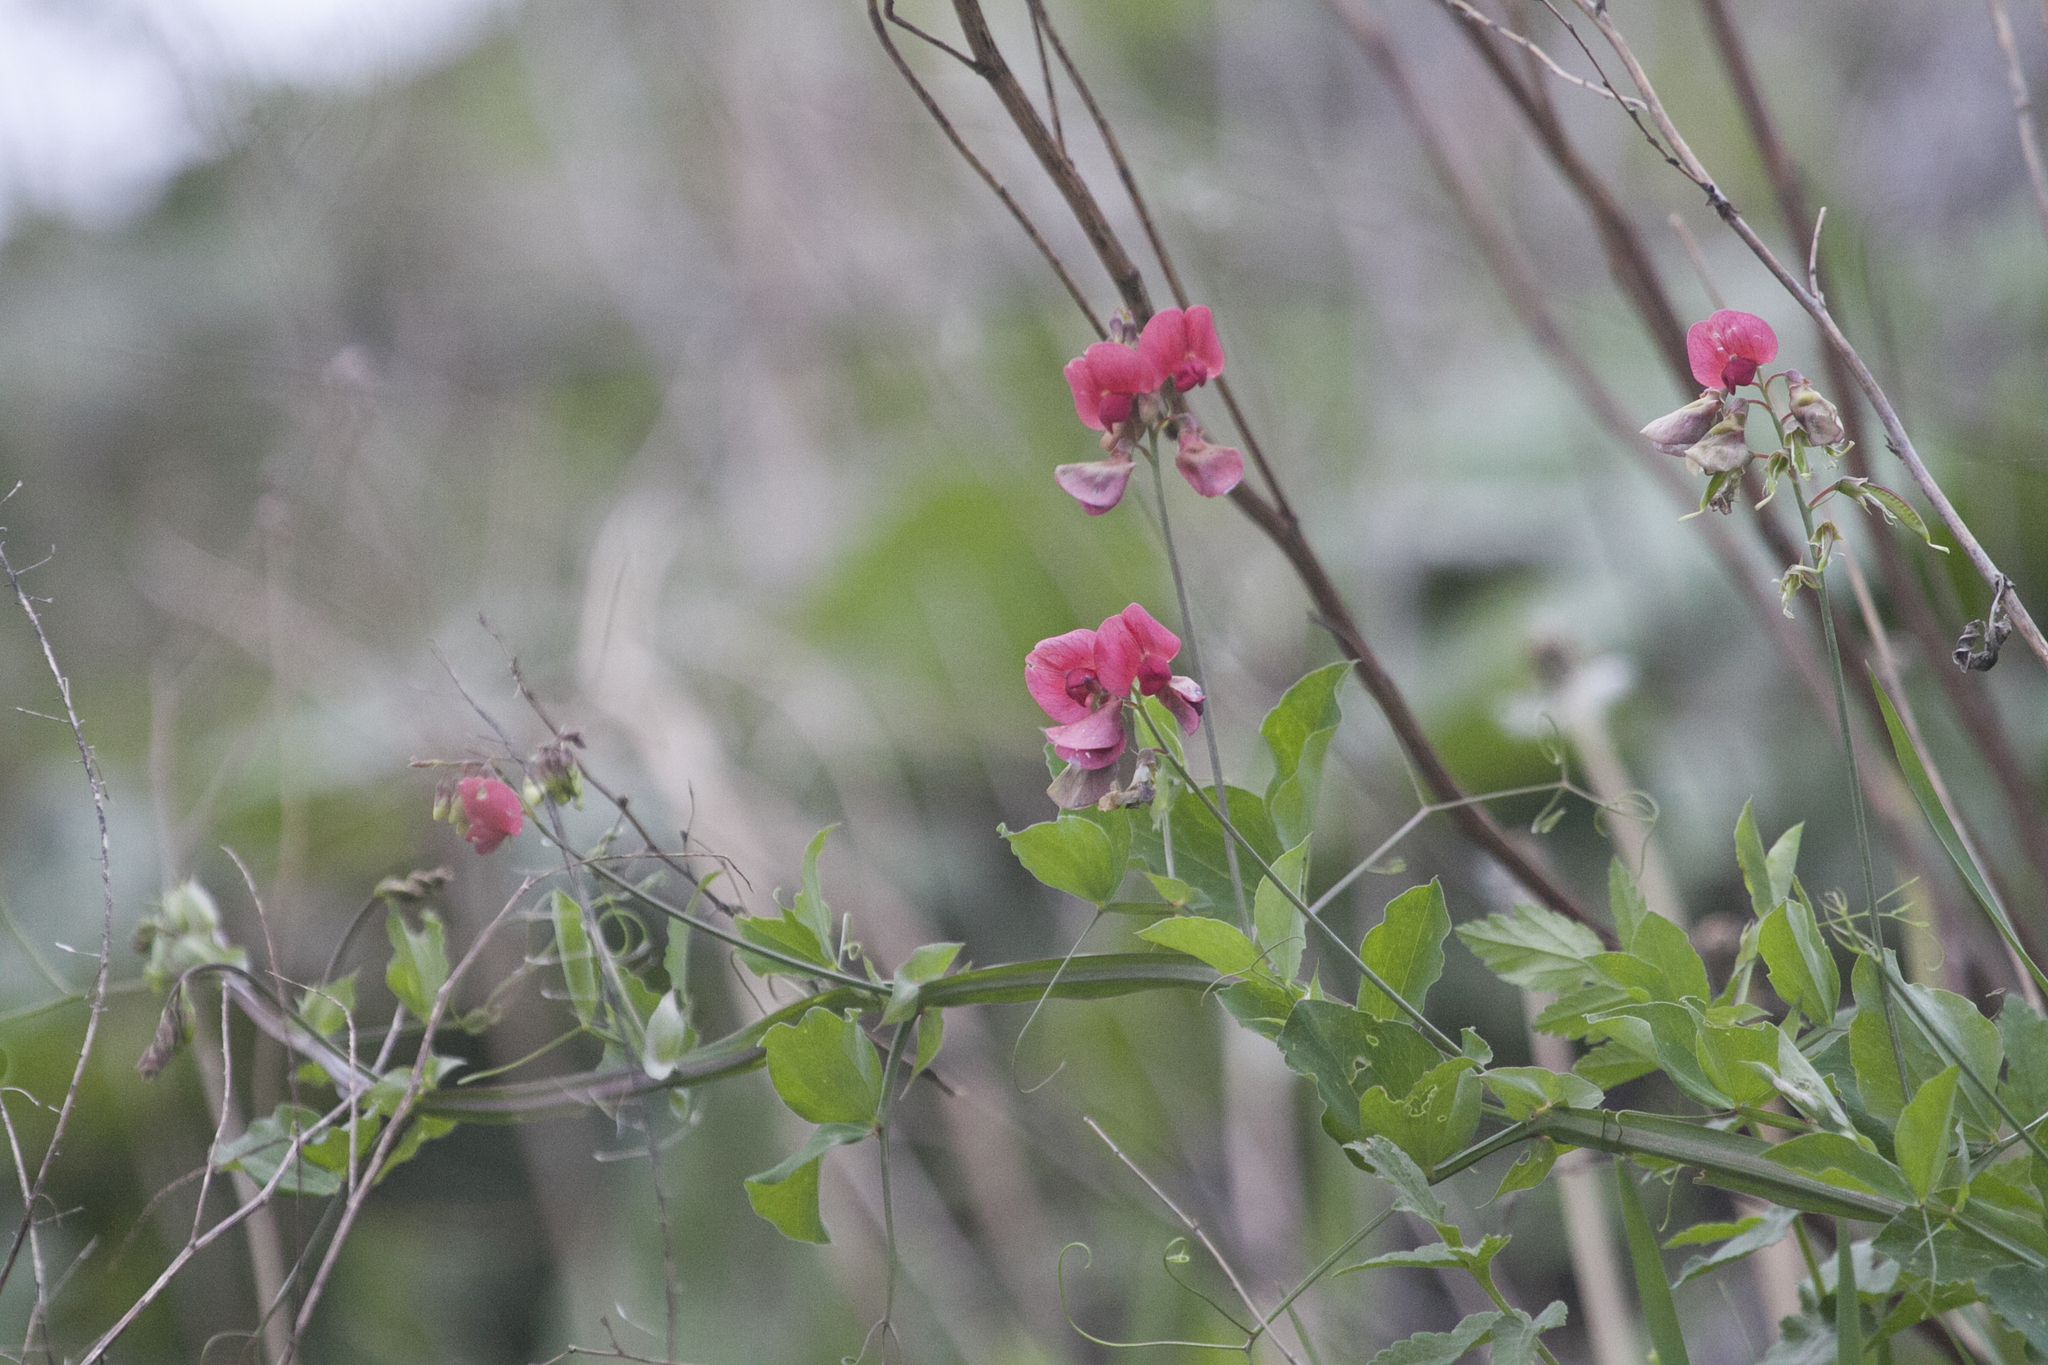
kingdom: Plantae
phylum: Tracheophyta
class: Magnoliopsida
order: Fabales
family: Fabaceae
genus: Lathyrus
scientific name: Lathyrus rotundifolius
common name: Round-leaf vetchling
